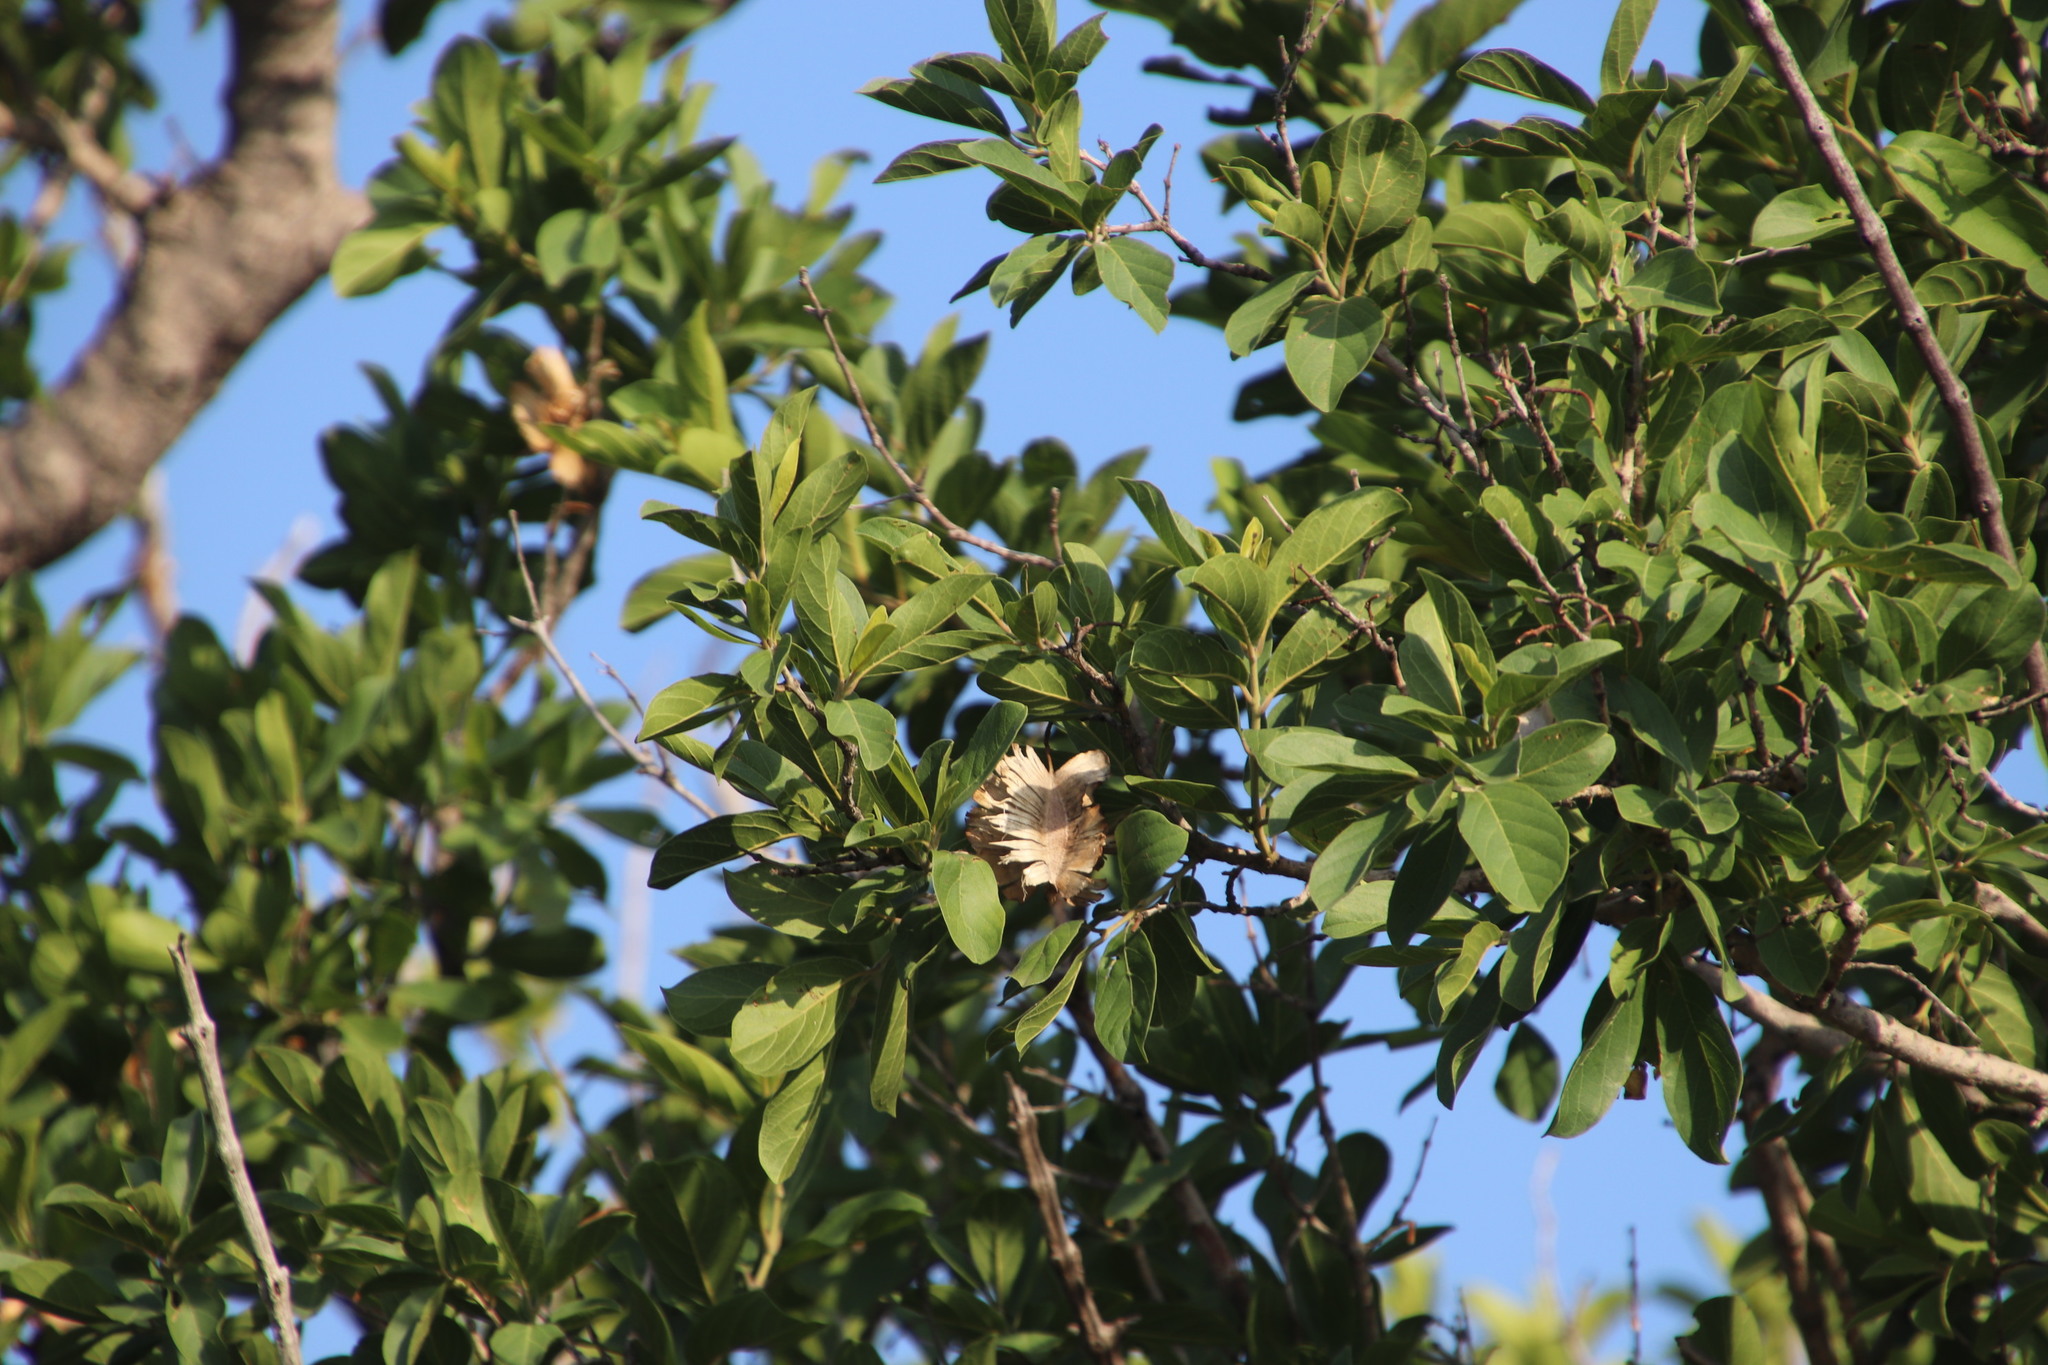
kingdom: Plantae
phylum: Tracheophyta
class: Magnoliopsida
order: Myrtales
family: Combretaceae
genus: Combretum
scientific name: Combretum zeyheri
